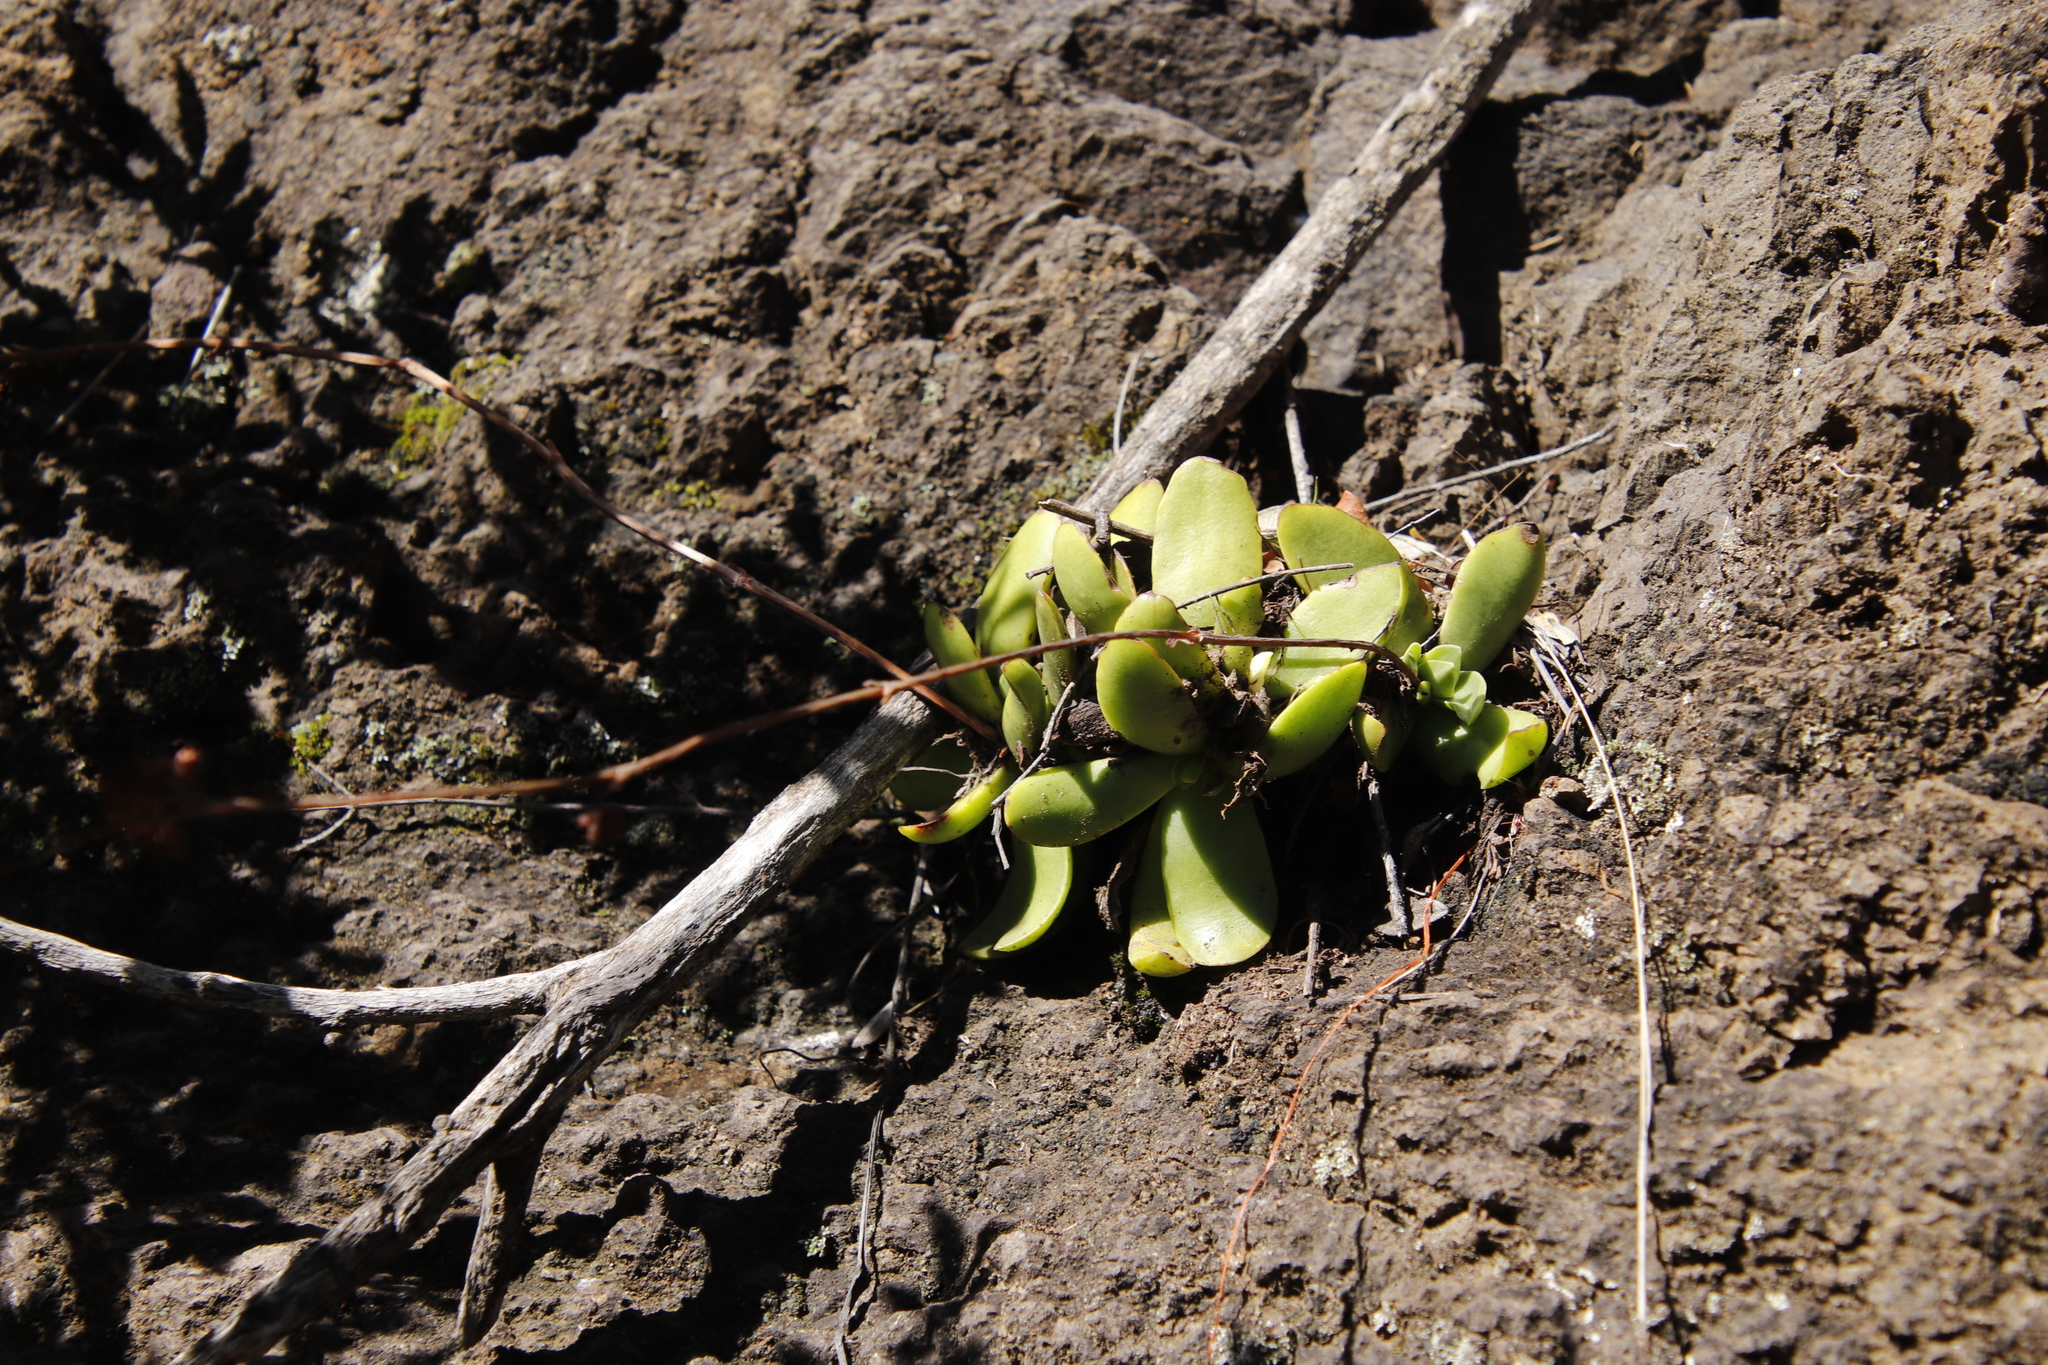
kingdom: Plantae
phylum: Tracheophyta
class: Magnoliopsida
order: Saxifragales
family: Crassulaceae
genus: Crassula
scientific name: Crassula nudicaulis
